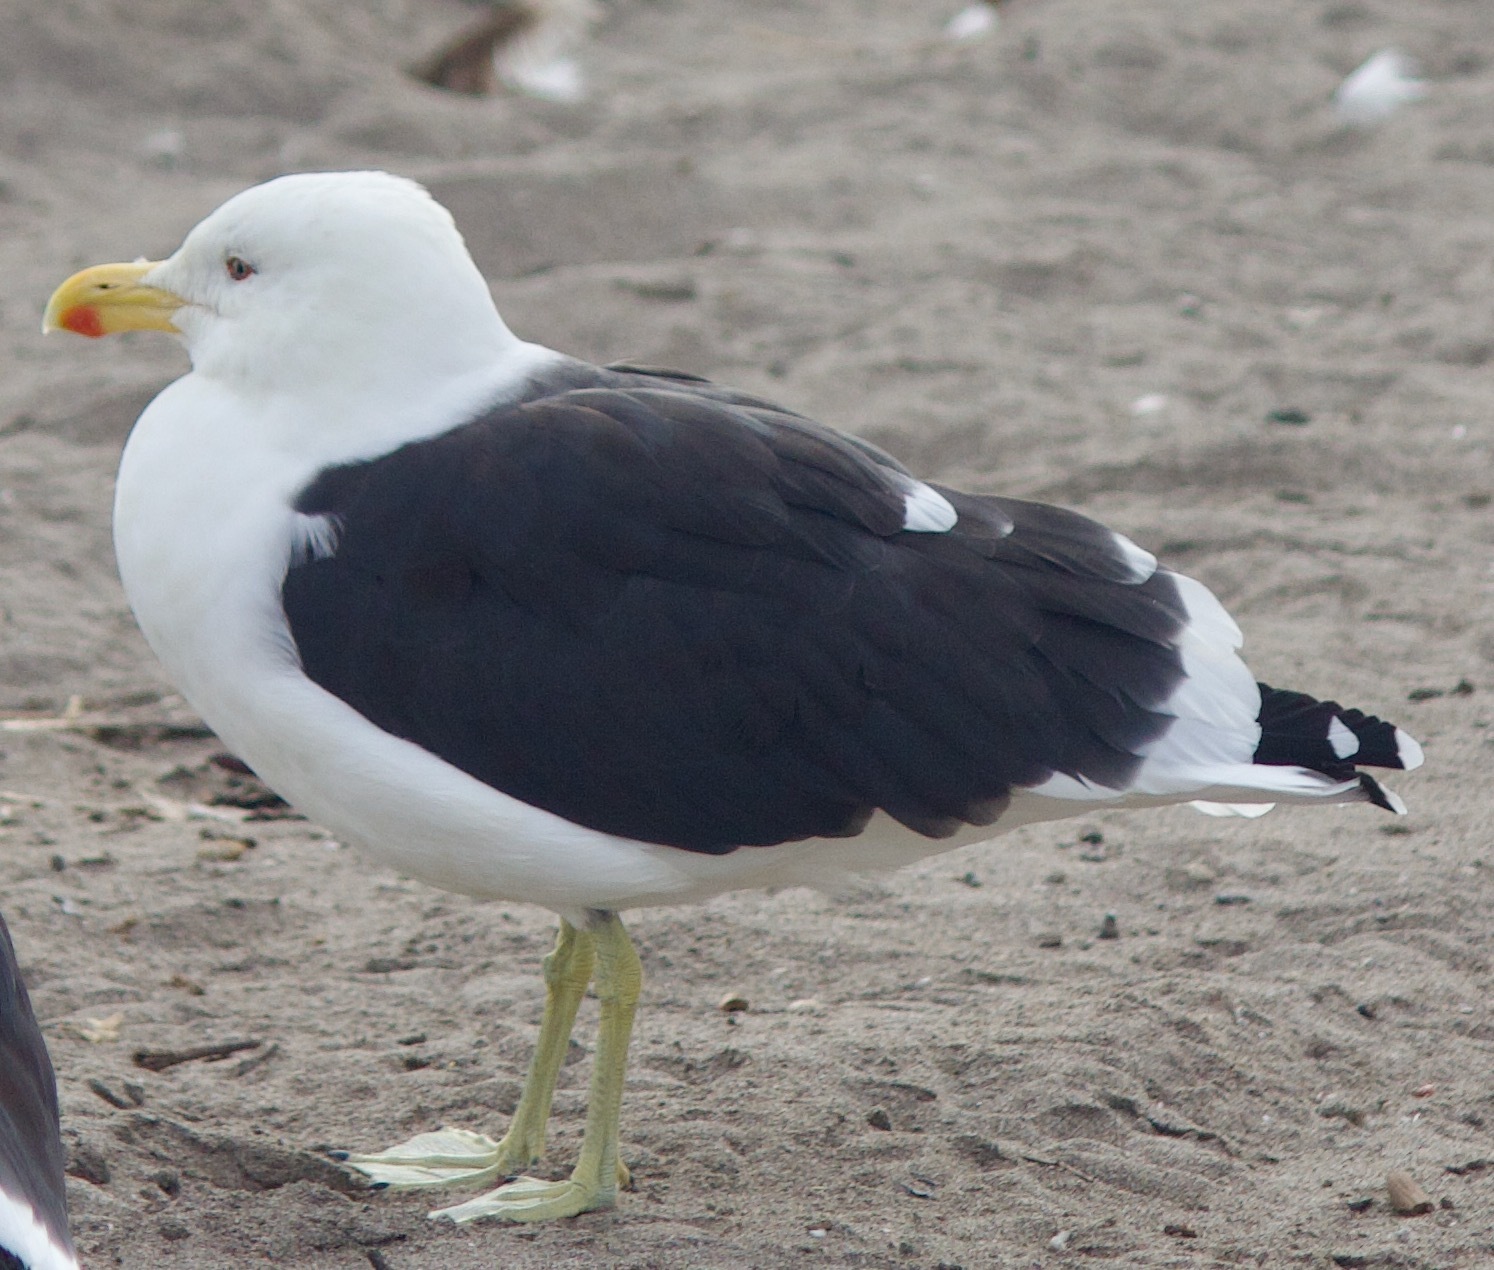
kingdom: Animalia
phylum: Chordata
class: Aves
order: Charadriiformes
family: Laridae
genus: Larus
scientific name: Larus dominicanus
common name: Kelp gull
